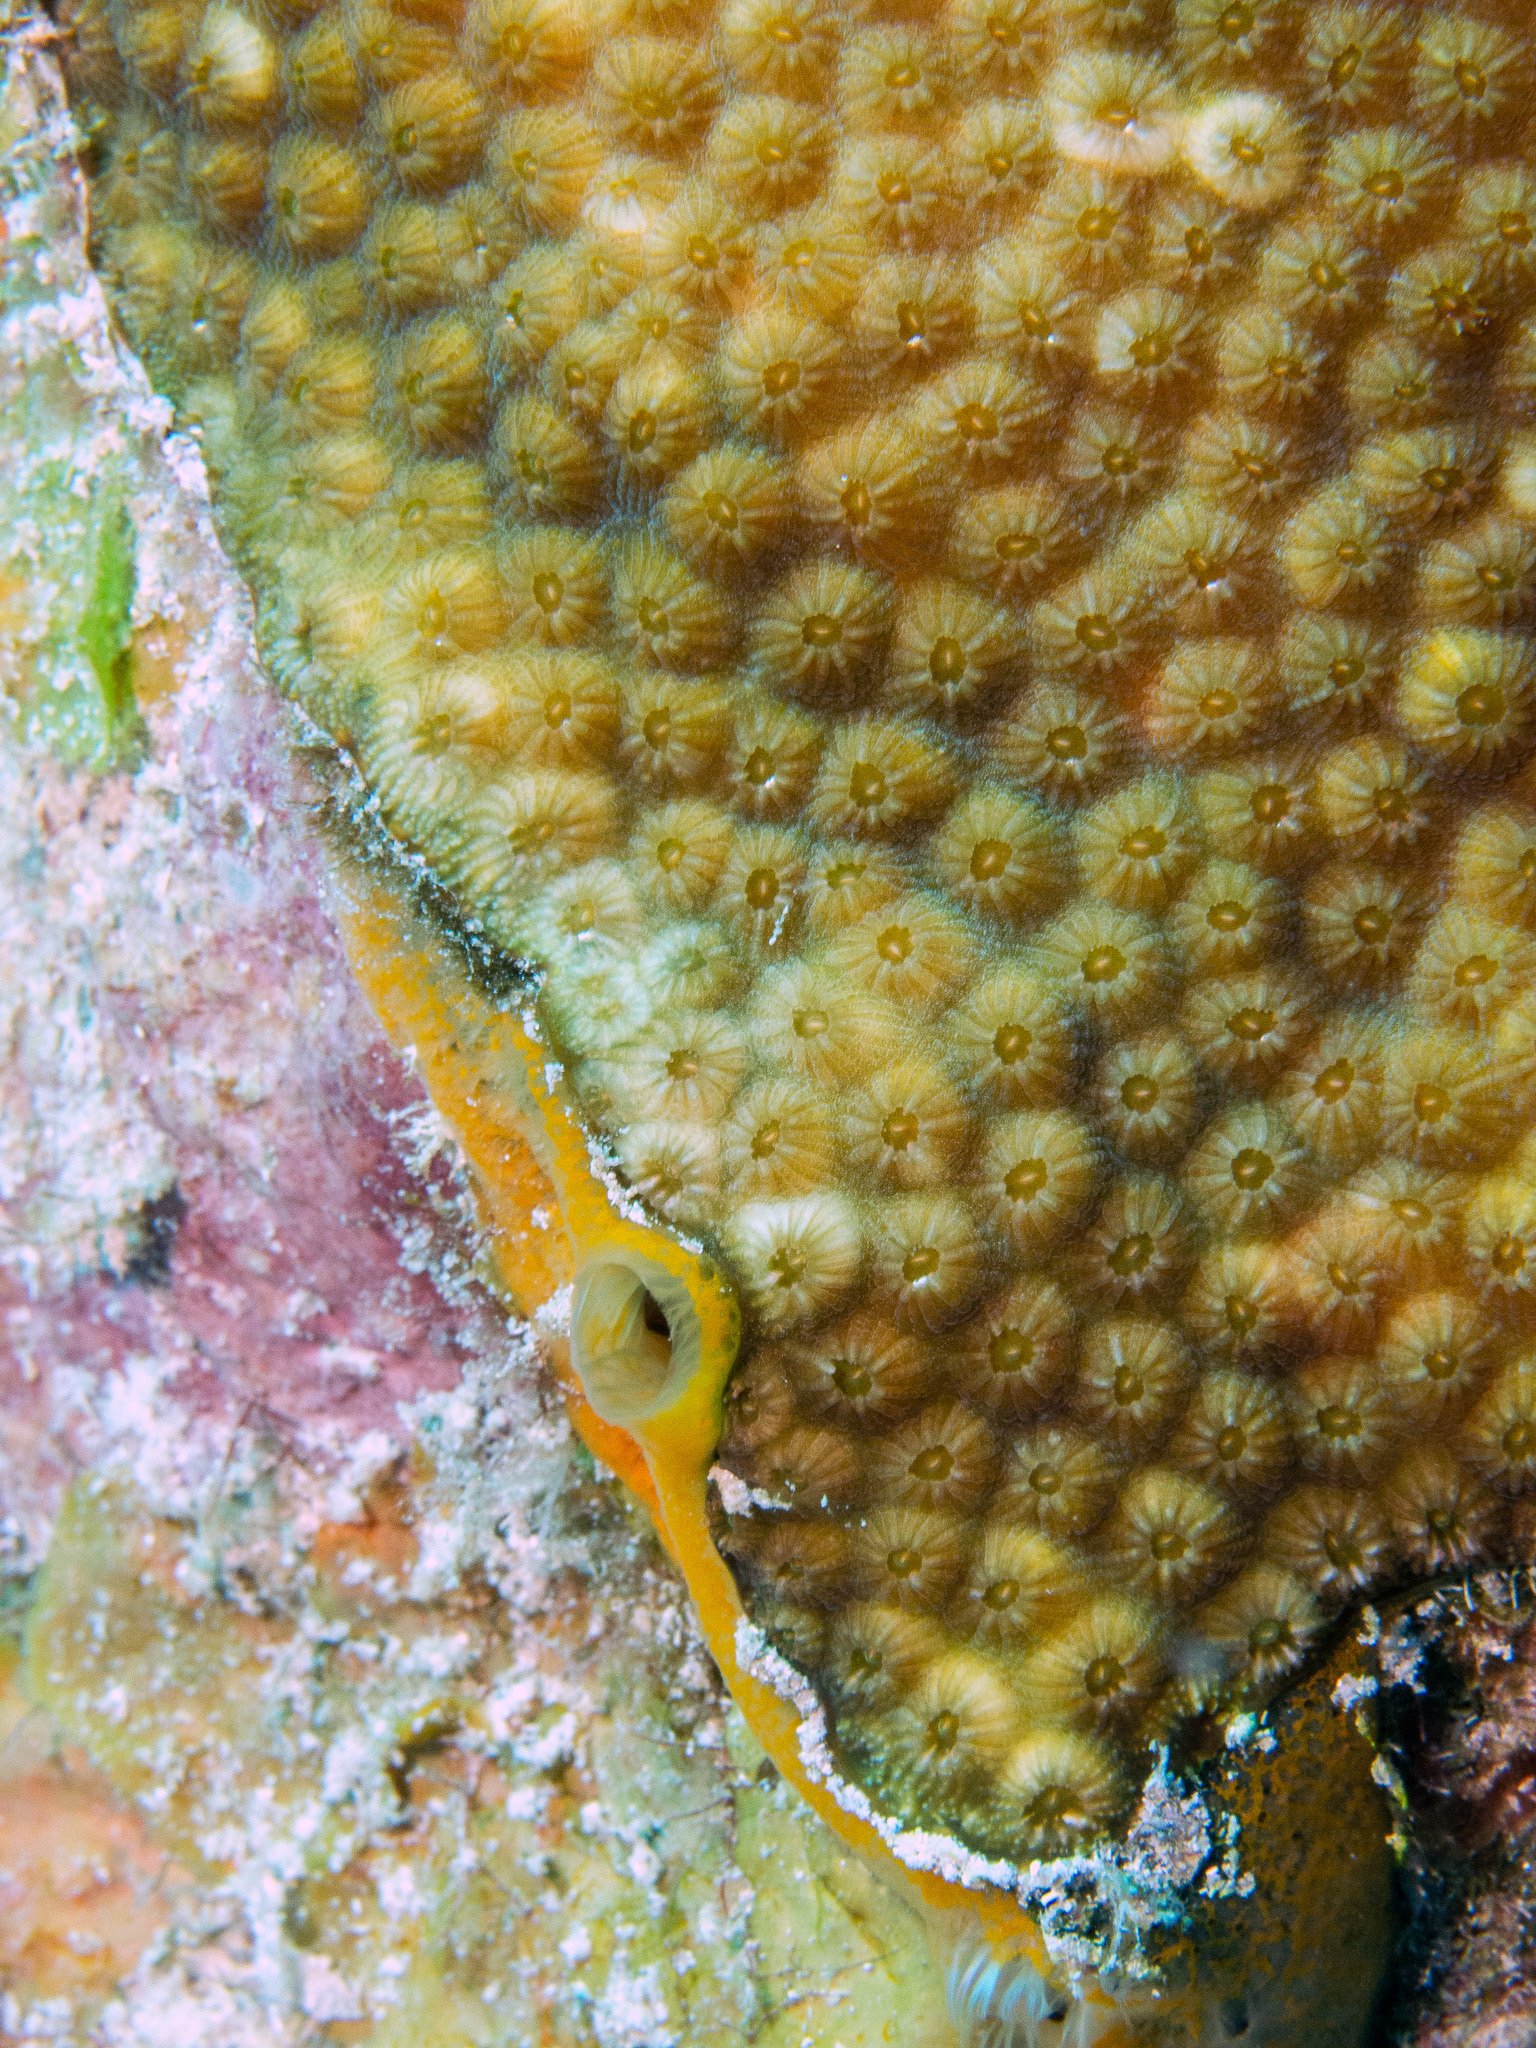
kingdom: Animalia
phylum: Porifera
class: Demospongiae
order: Poecilosclerida
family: Mycalidae
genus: Mycale
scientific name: Mycale laevis
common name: Orange icing sponge
